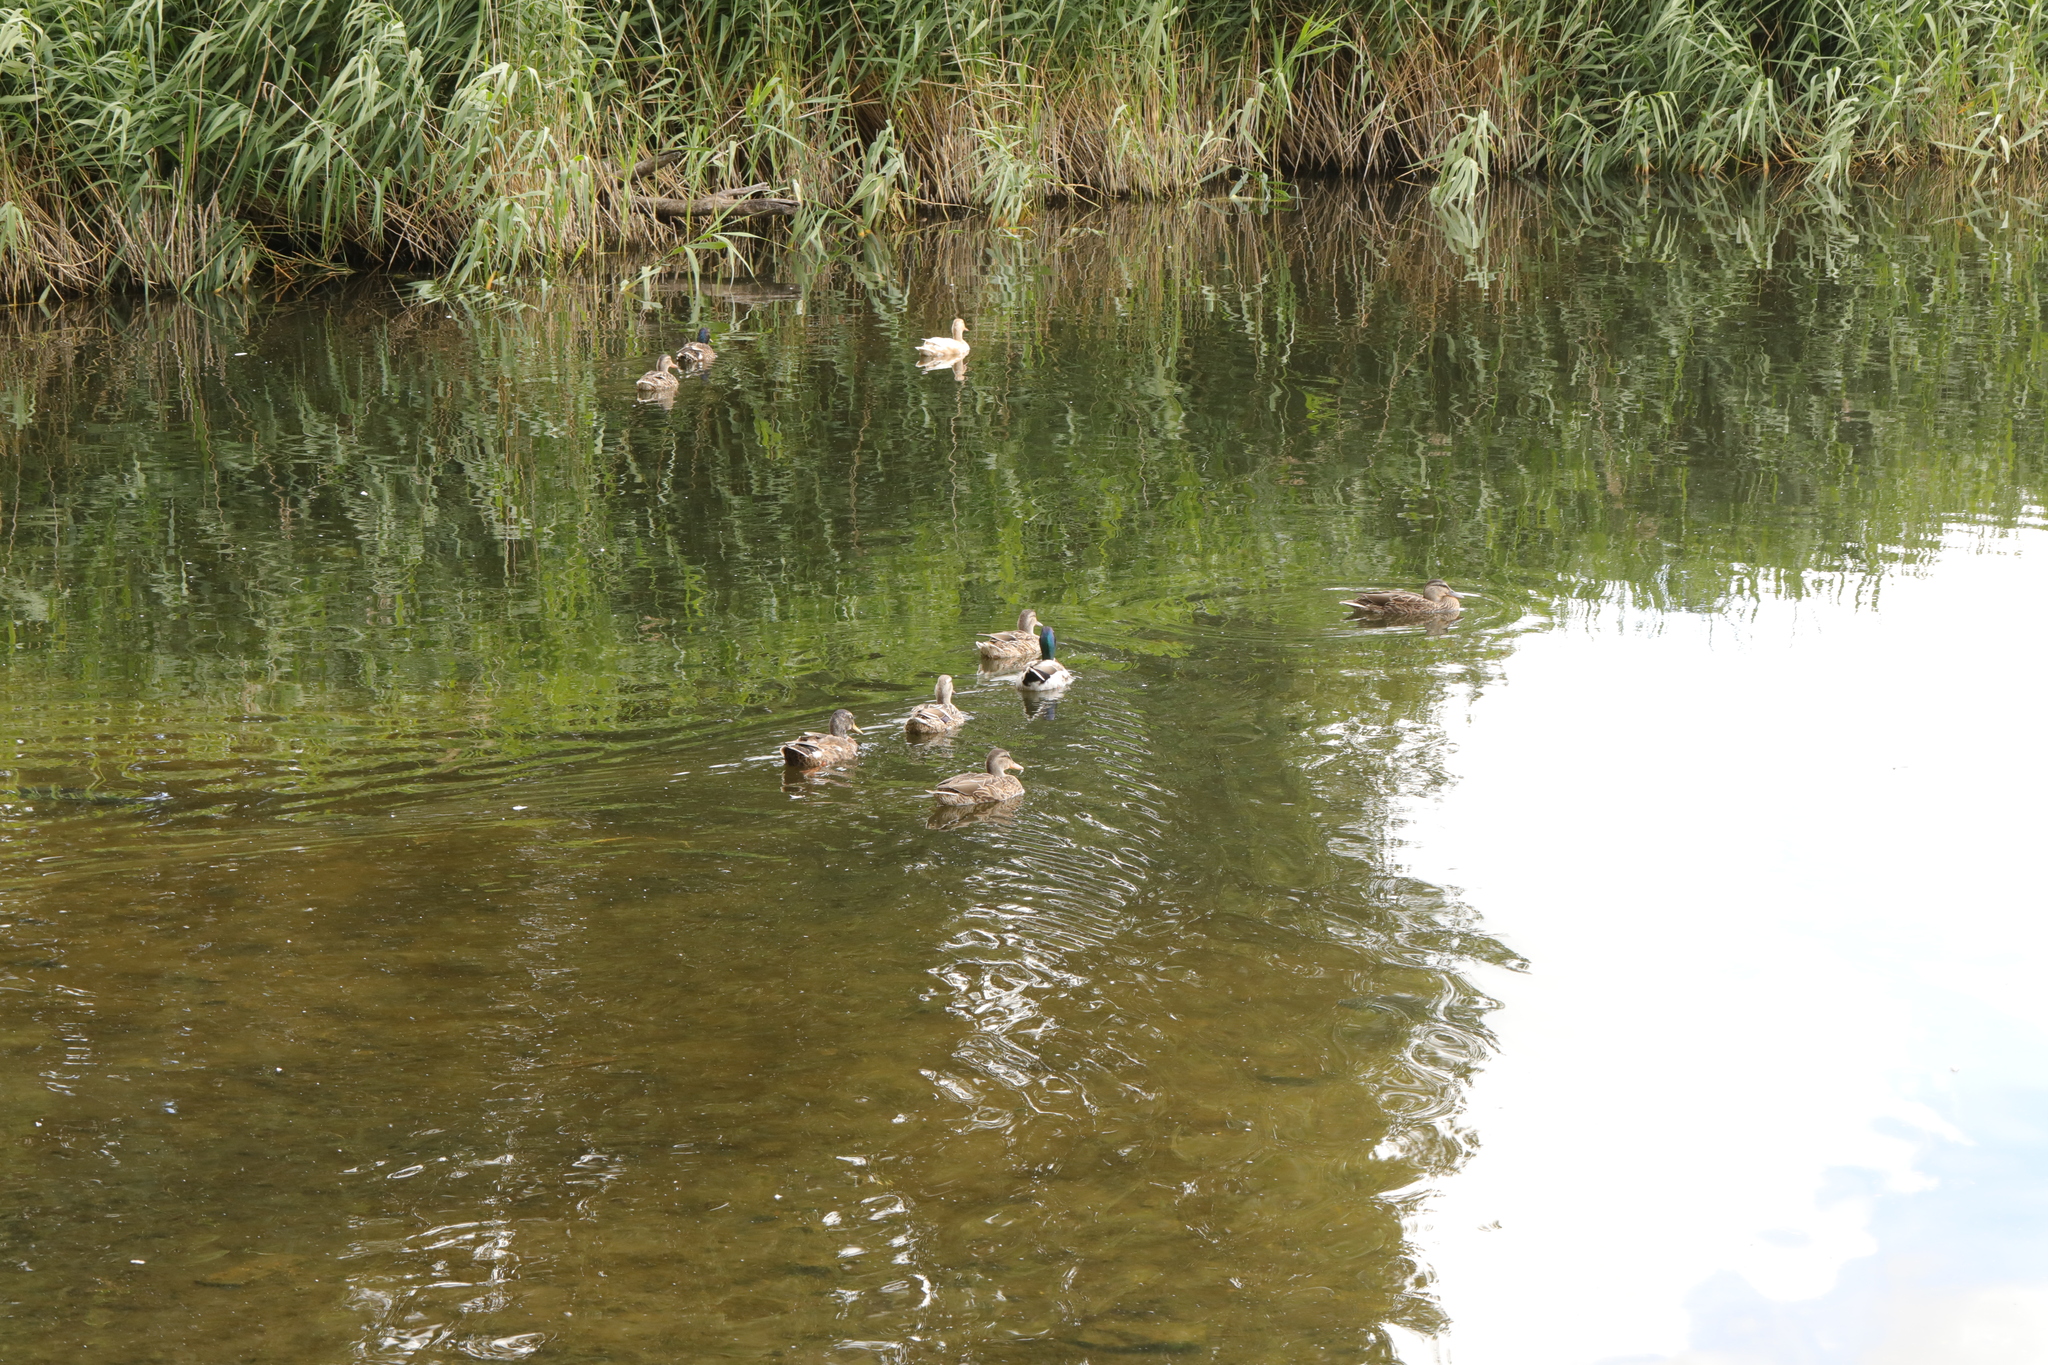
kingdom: Animalia
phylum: Chordata
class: Aves
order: Anseriformes
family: Anatidae
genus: Anas
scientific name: Anas platyrhynchos
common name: Mallard
